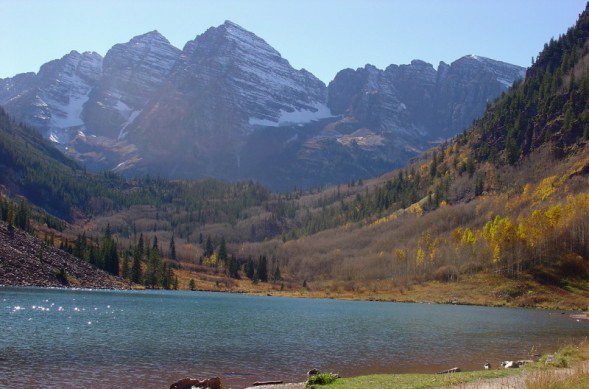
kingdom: Plantae
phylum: Tracheophyta
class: Magnoliopsida
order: Malpighiales
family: Salicaceae
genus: Populus
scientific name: Populus tremuloides
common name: Quaking aspen
